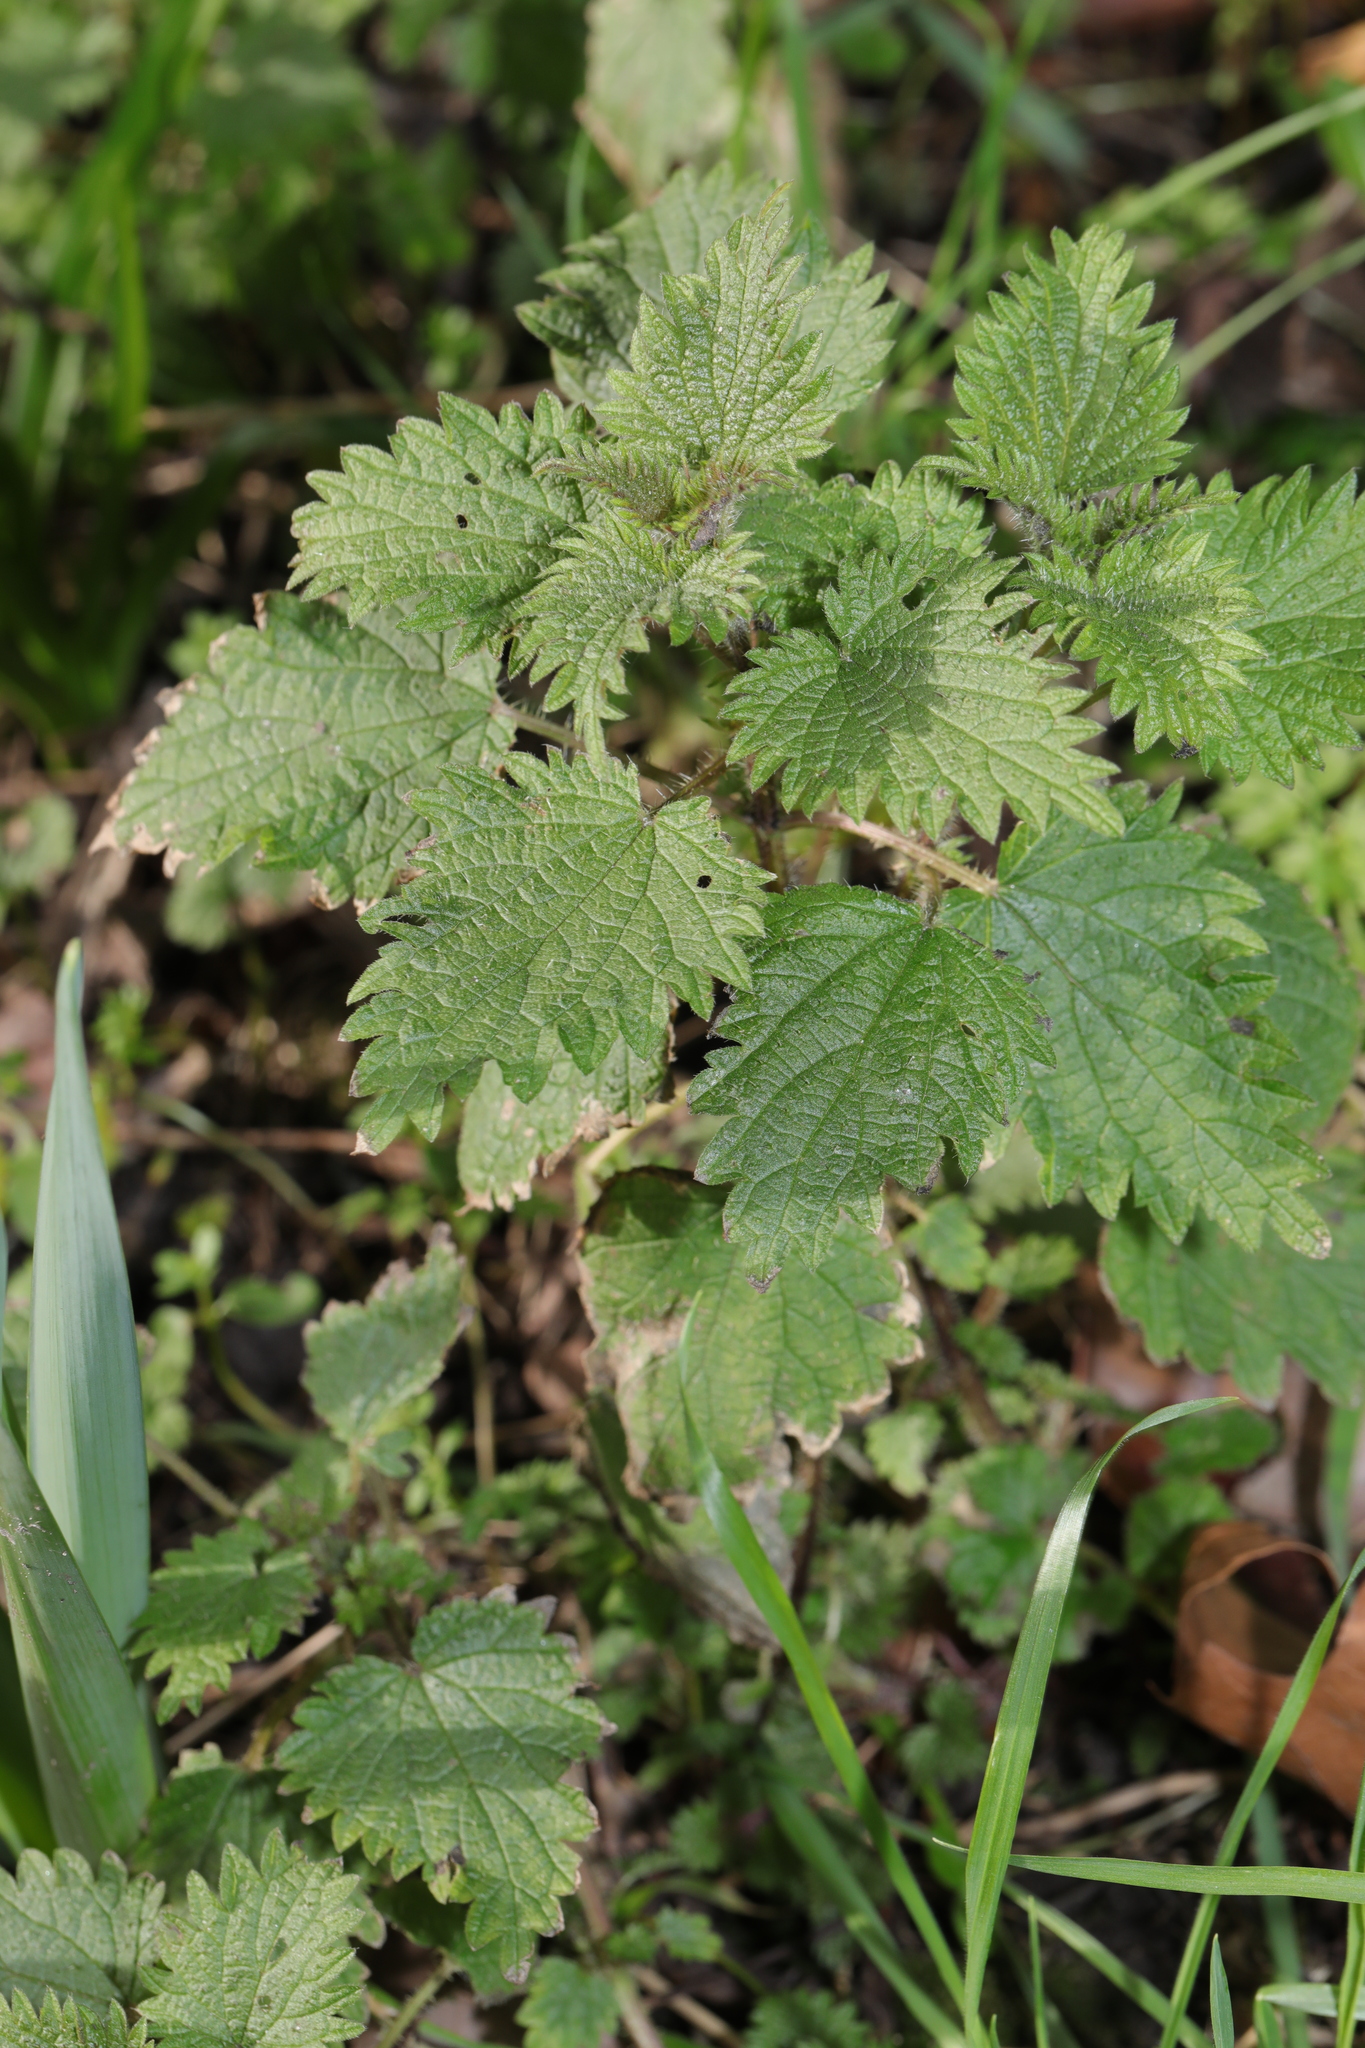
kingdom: Plantae
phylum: Tracheophyta
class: Magnoliopsida
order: Rosales
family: Urticaceae
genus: Urtica
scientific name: Urtica dioica
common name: Common nettle
